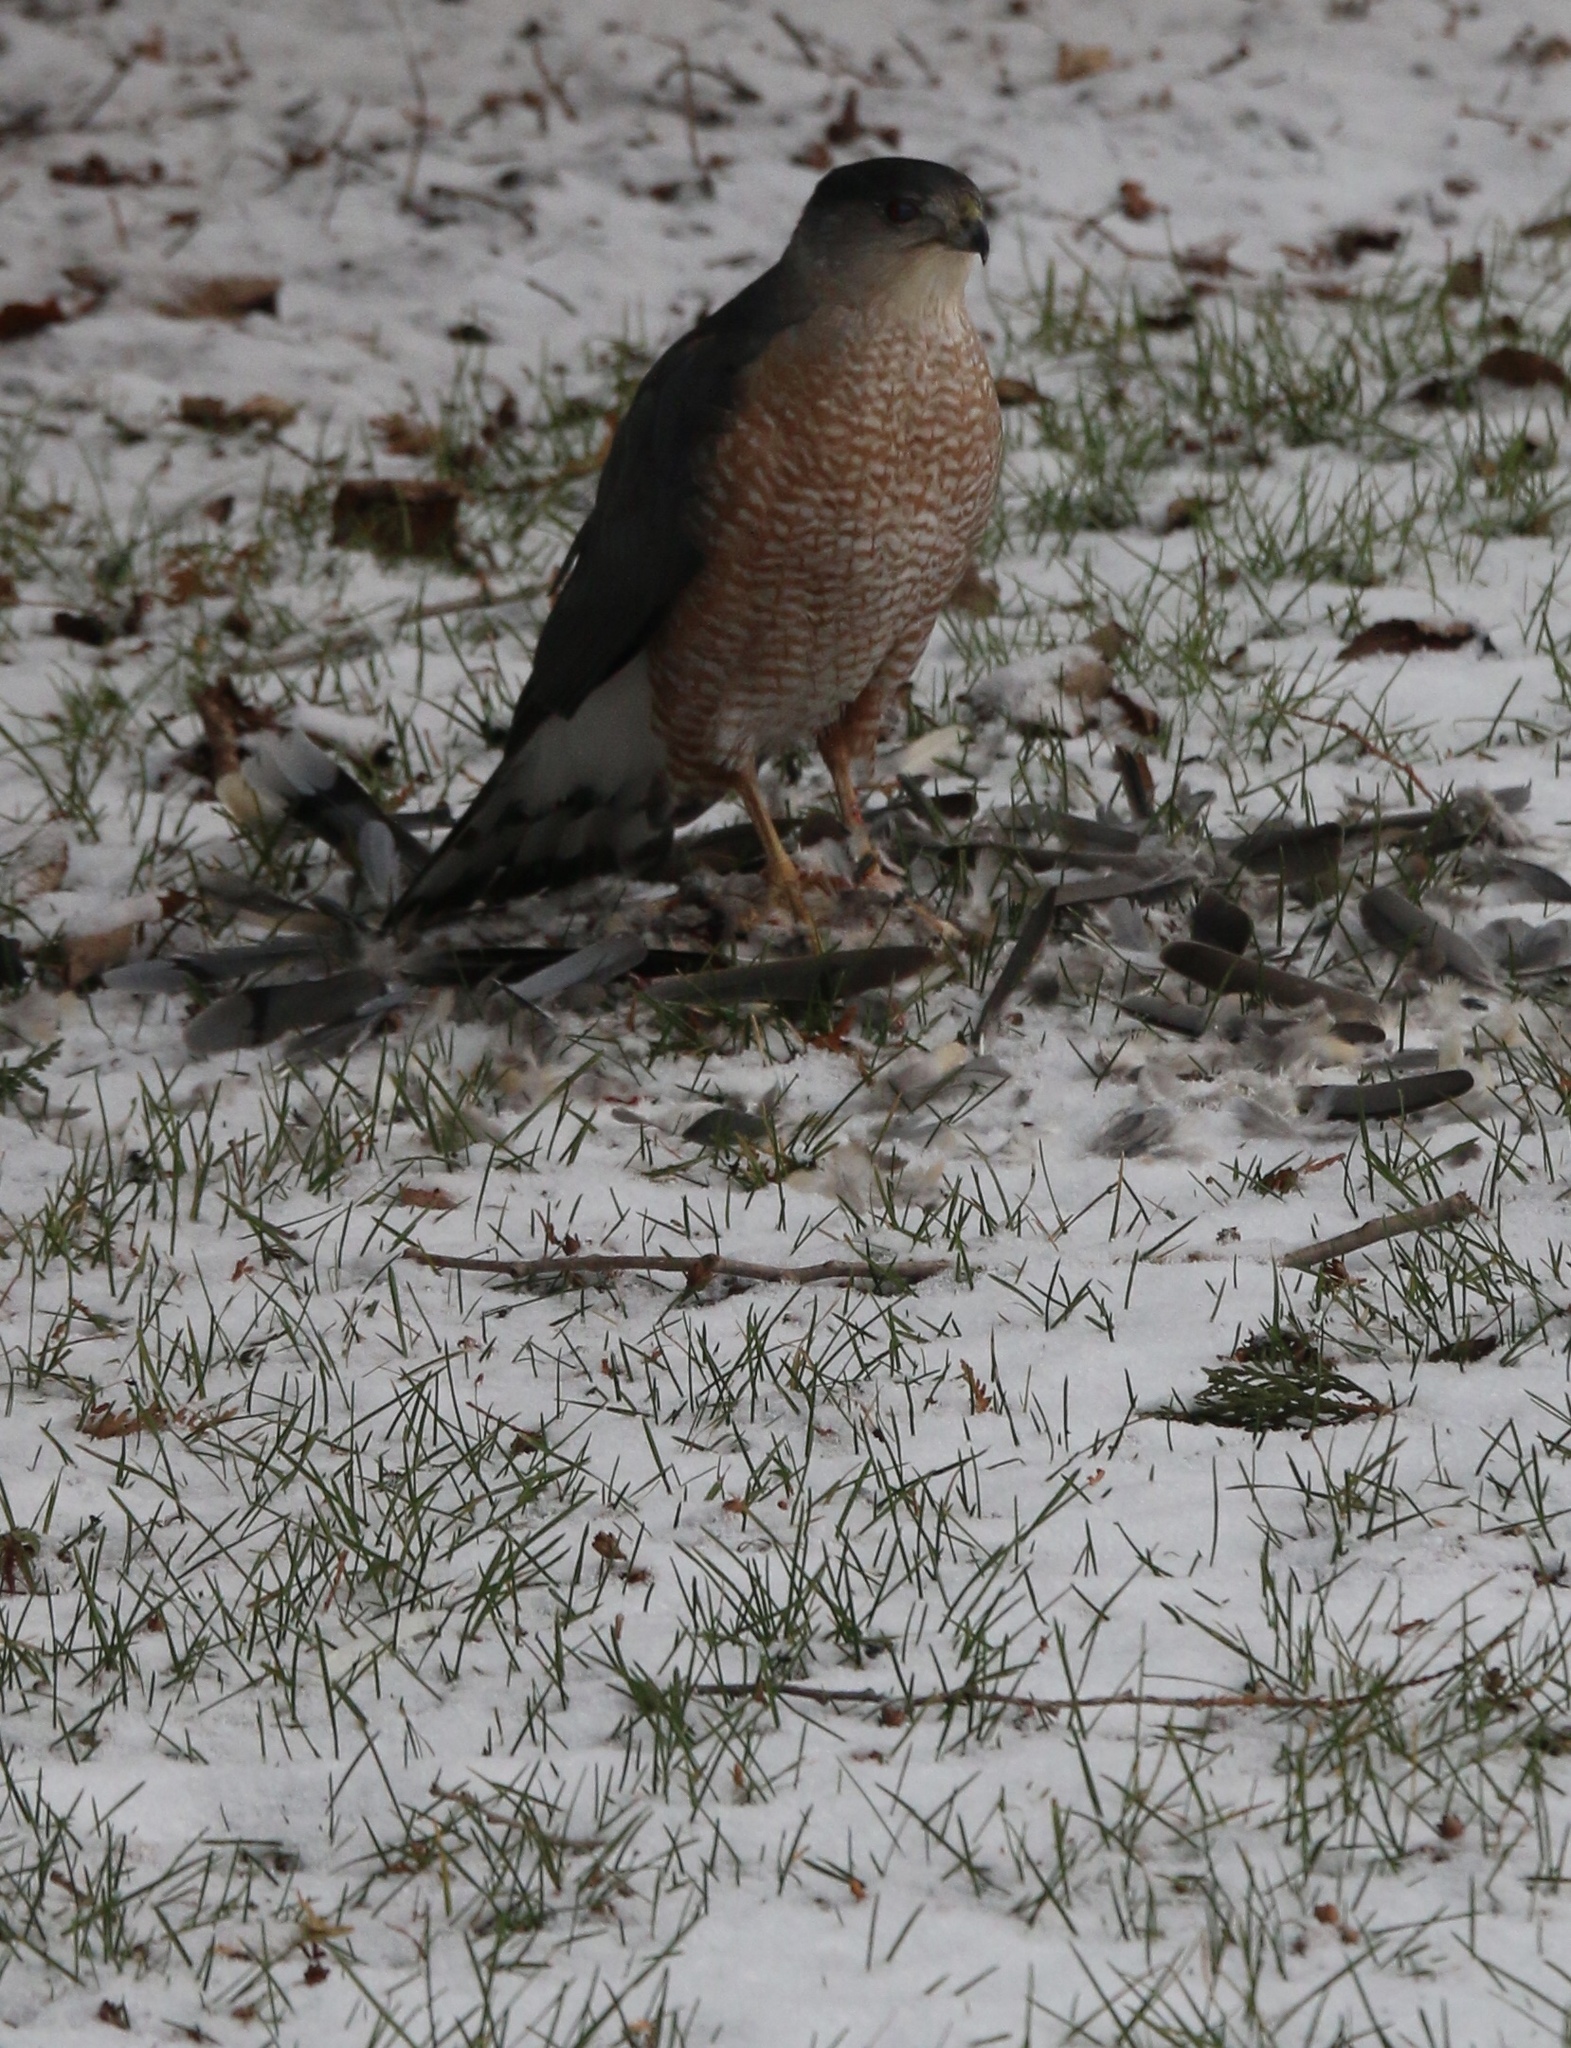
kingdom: Animalia
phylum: Chordata
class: Aves
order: Accipitriformes
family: Accipitridae
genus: Accipiter
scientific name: Accipiter cooperii
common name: Cooper's hawk
